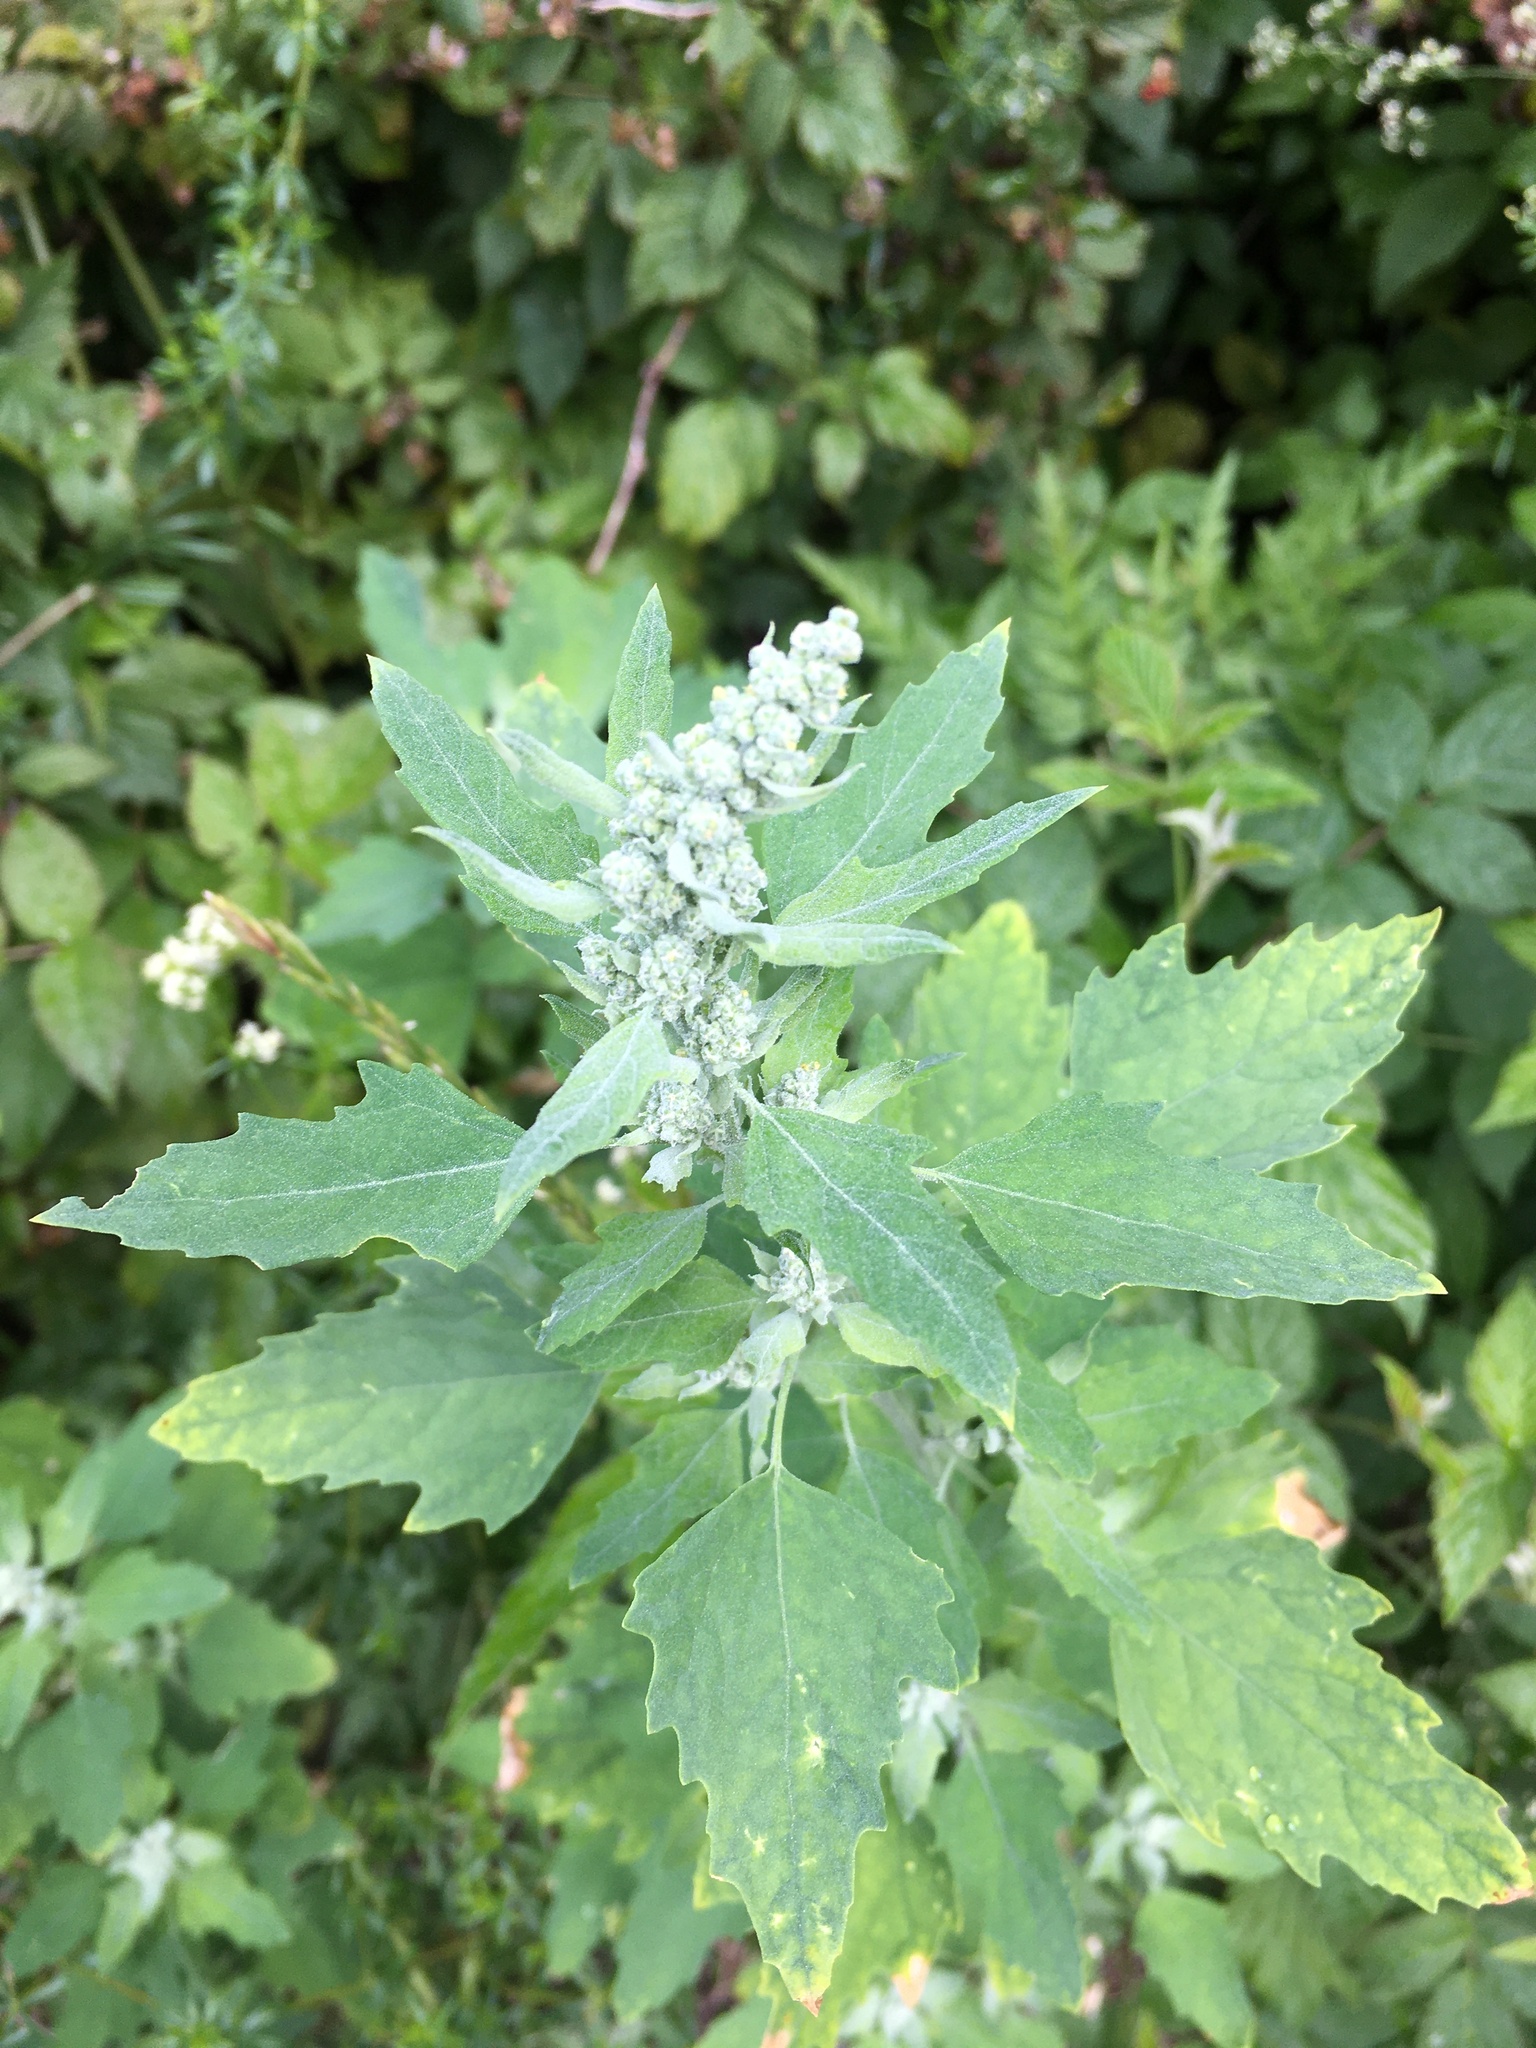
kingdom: Plantae
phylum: Tracheophyta
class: Magnoliopsida
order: Caryophyllales
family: Amaranthaceae
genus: Chenopodium
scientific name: Chenopodium album
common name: Fat-hen
